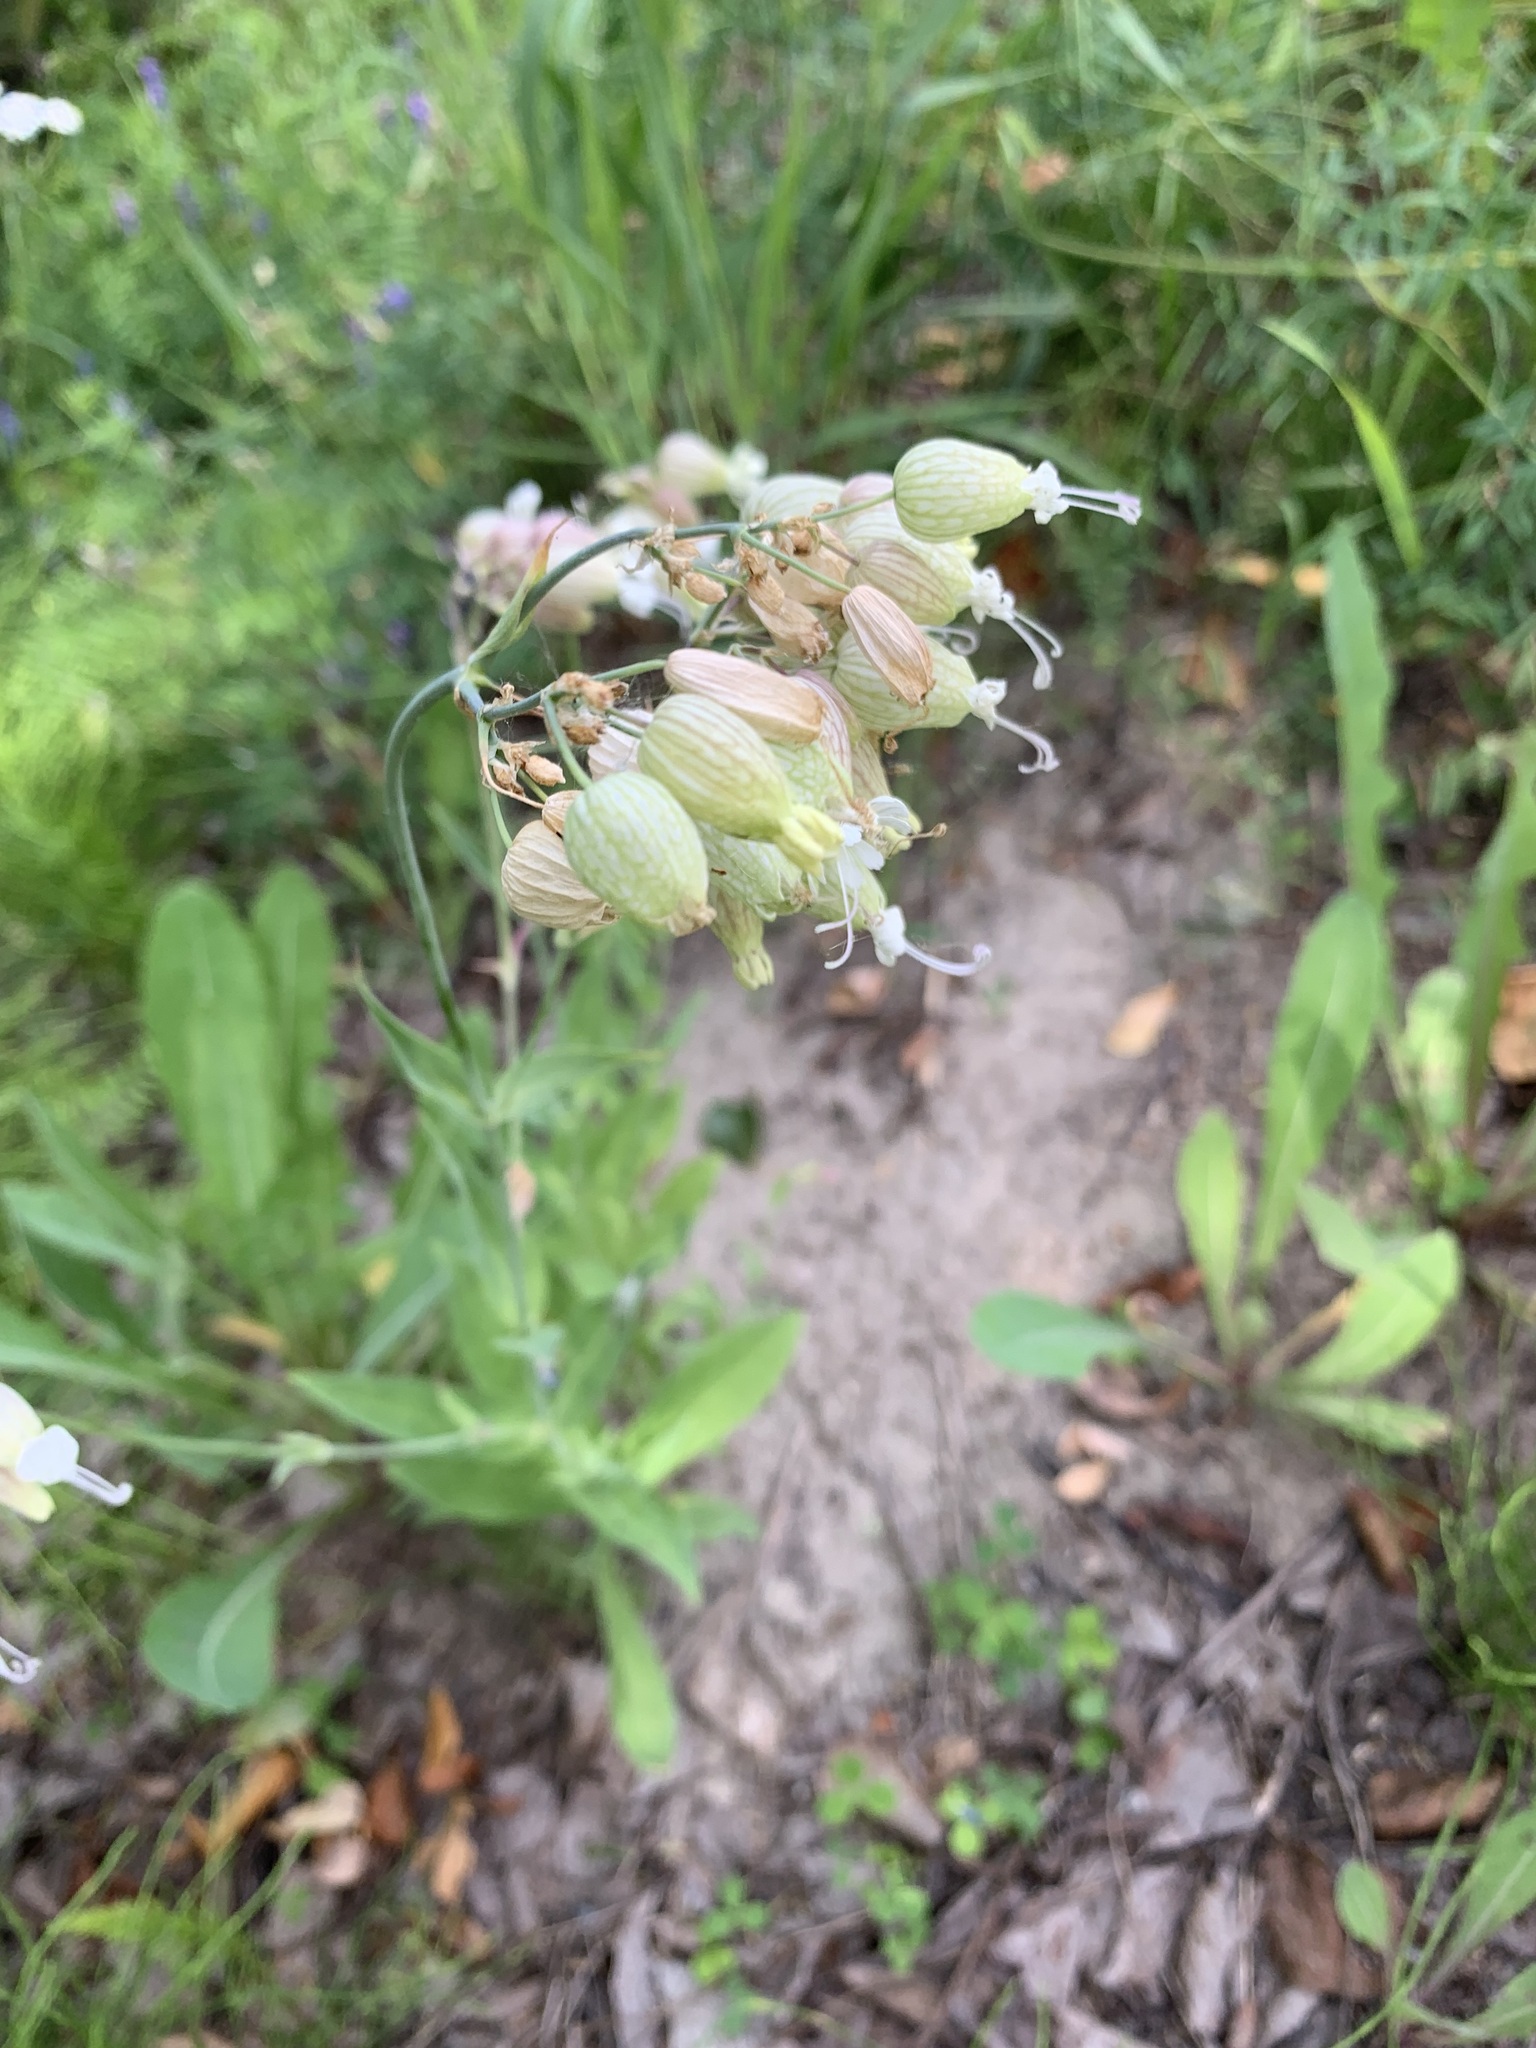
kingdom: Plantae
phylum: Tracheophyta
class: Magnoliopsida
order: Caryophyllales
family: Caryophyllaceae
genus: Silene
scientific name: Silene vulgaris
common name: Bladder campion
